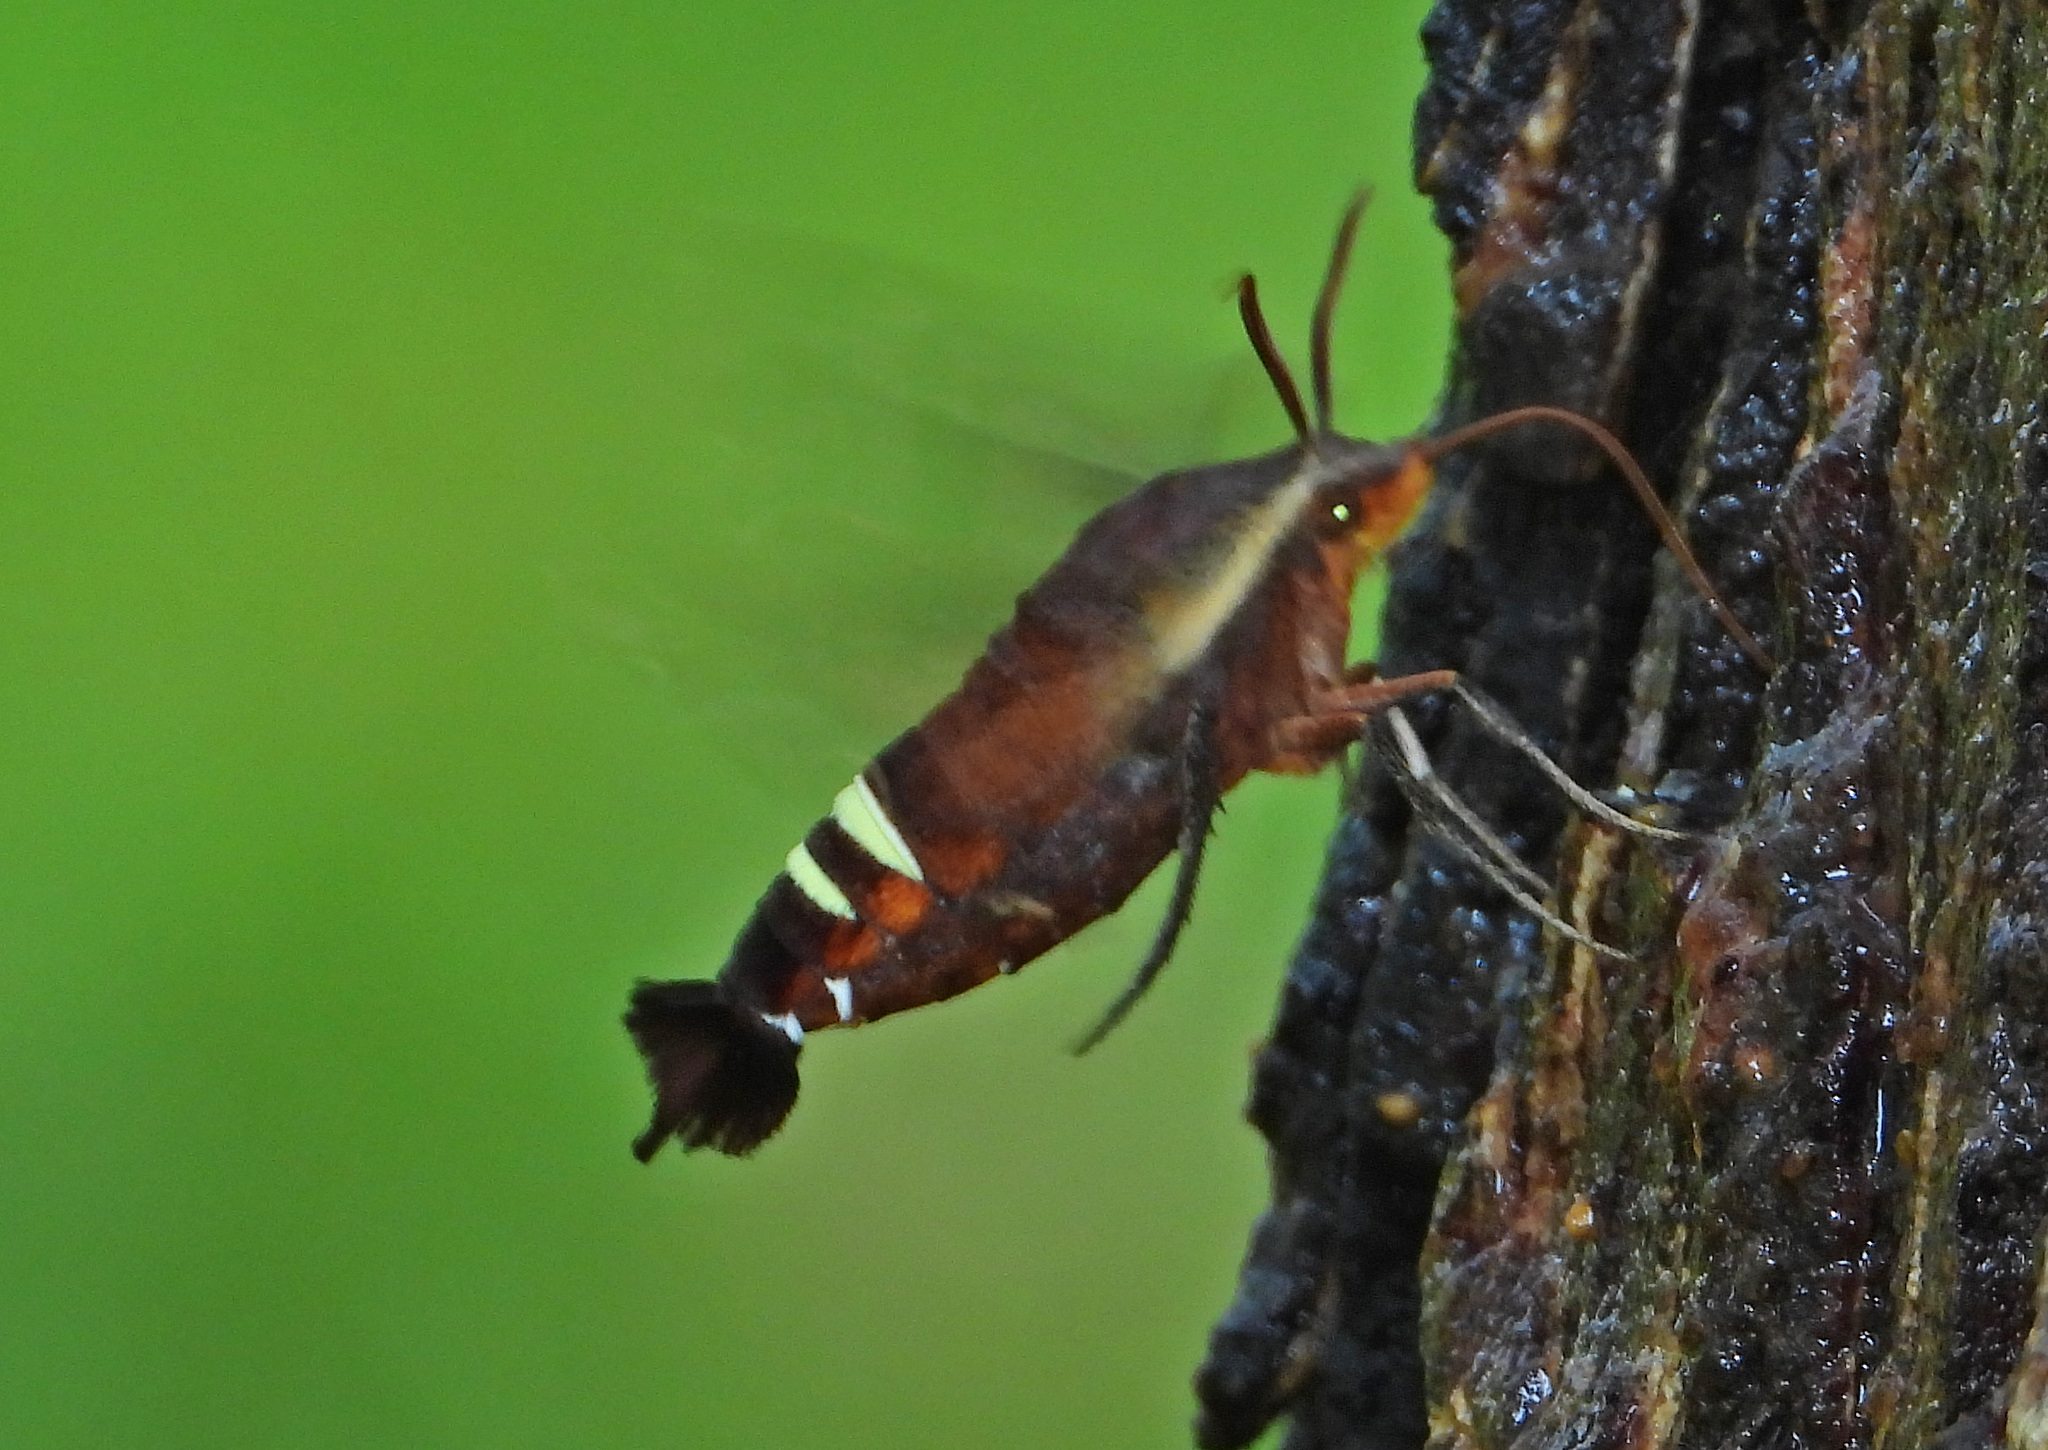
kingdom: Animalia
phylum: Arthropoda
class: Insecta
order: Lepidoptera
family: Sphingidae
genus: Amphion
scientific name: Amphion floridensis
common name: Nessus sphinx
